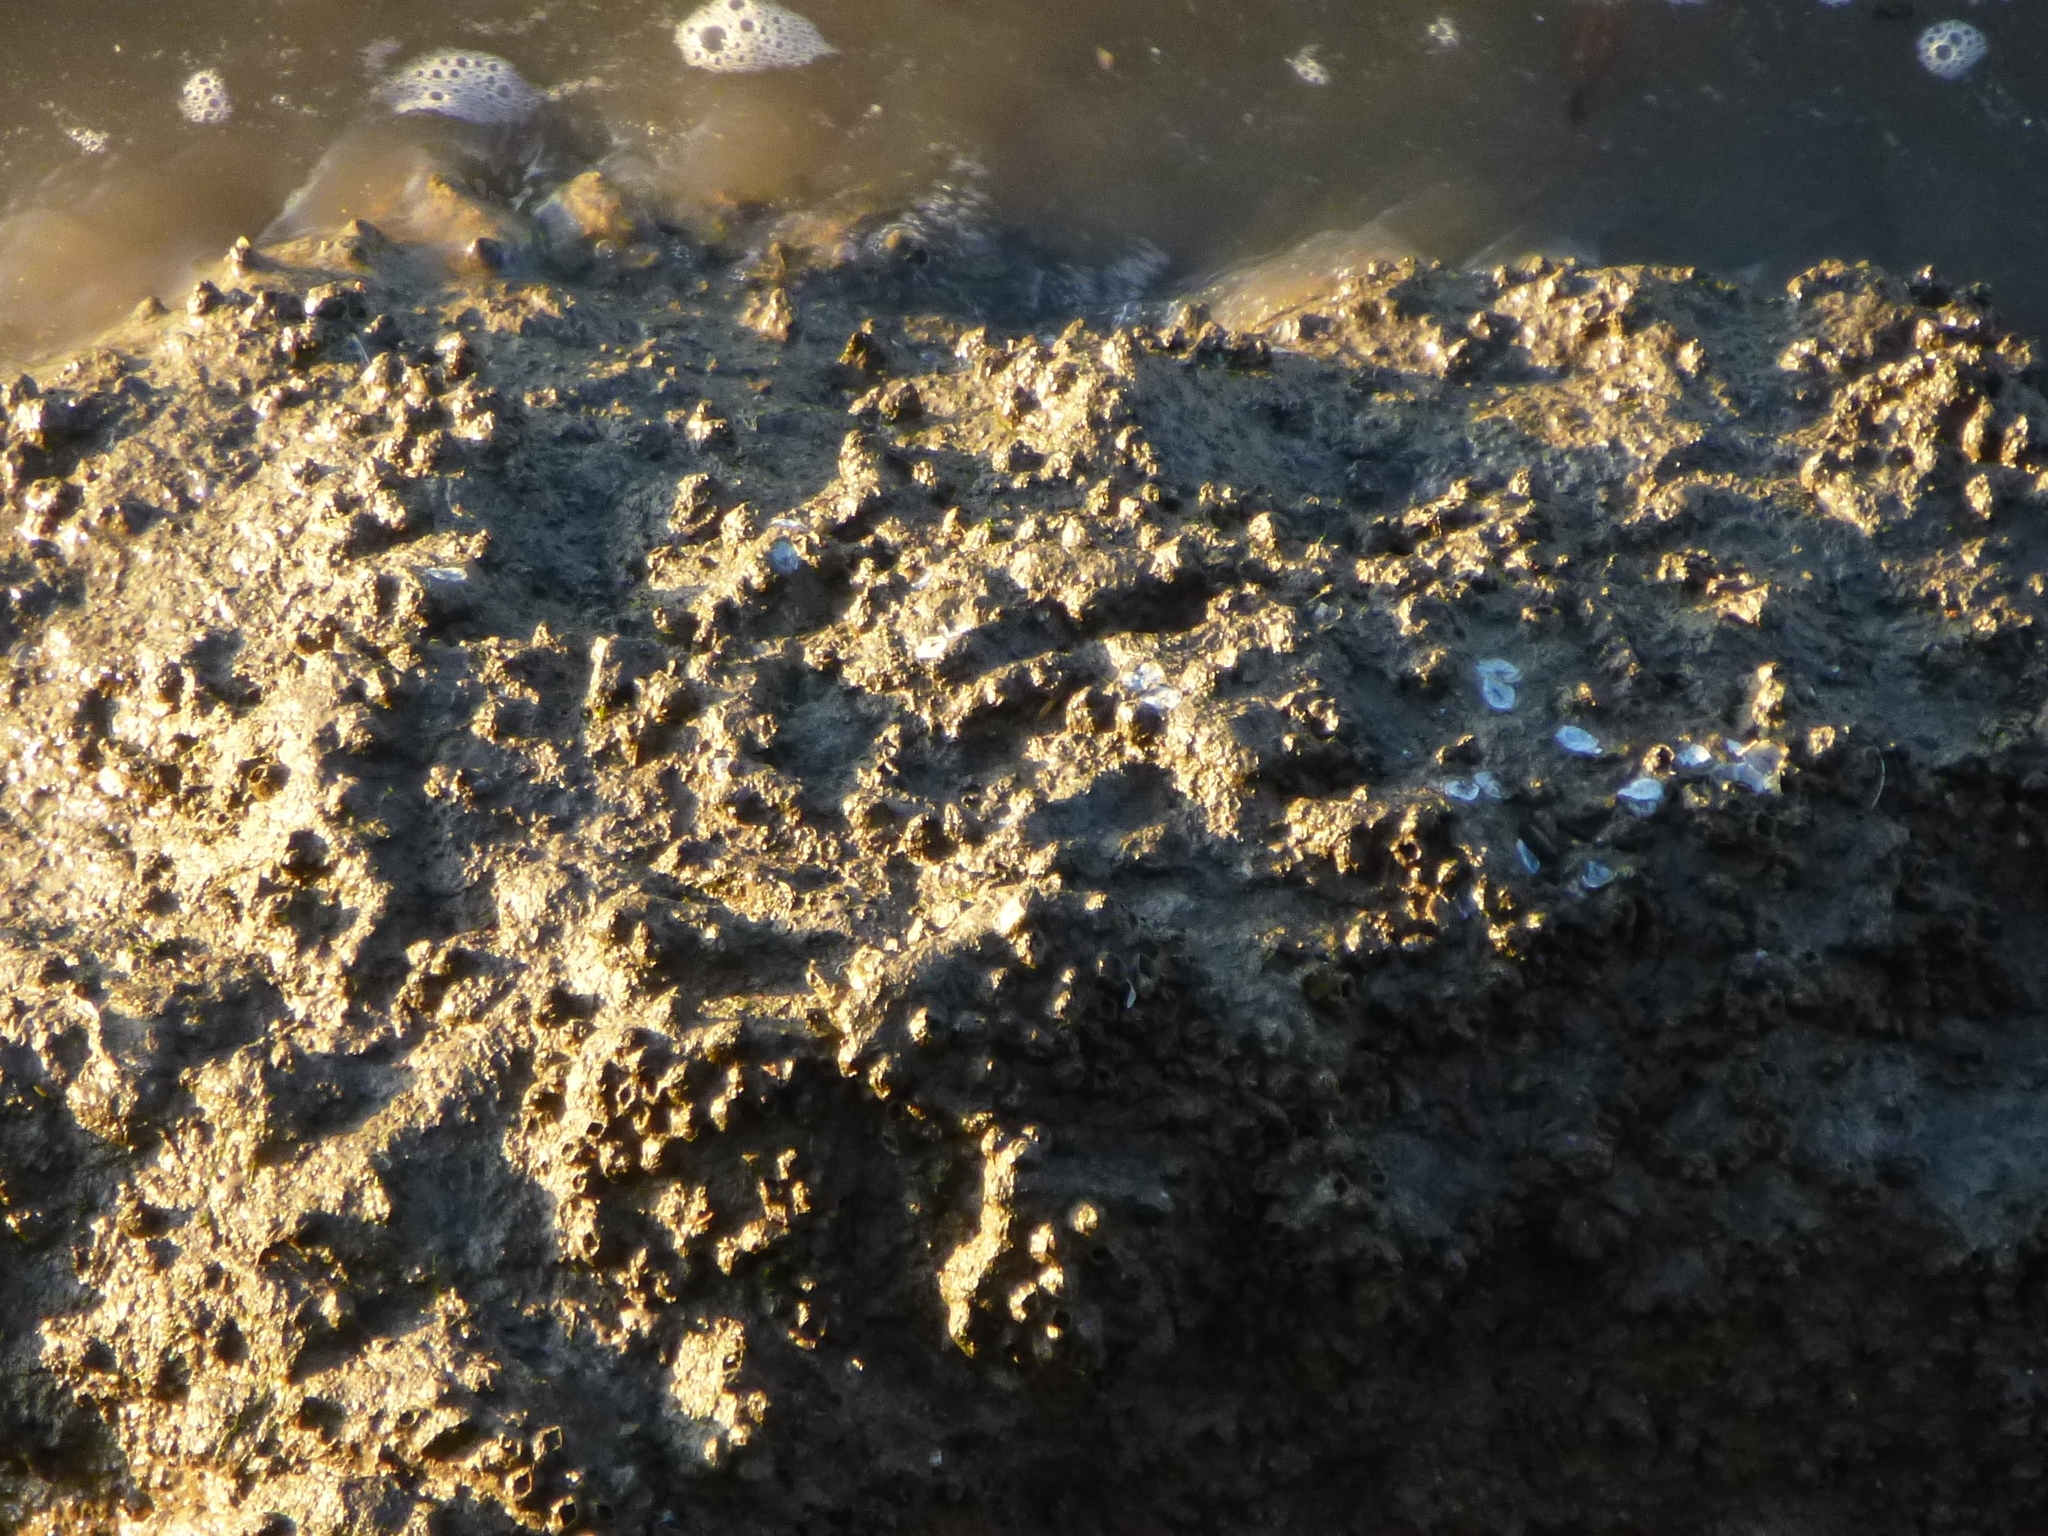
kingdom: Animalia
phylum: Arthropoda
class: Maxillopoda
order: Sessilia
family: Balanidae
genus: Amphibalanus
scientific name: Amphibalanus improvisus
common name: Bay barnacle
